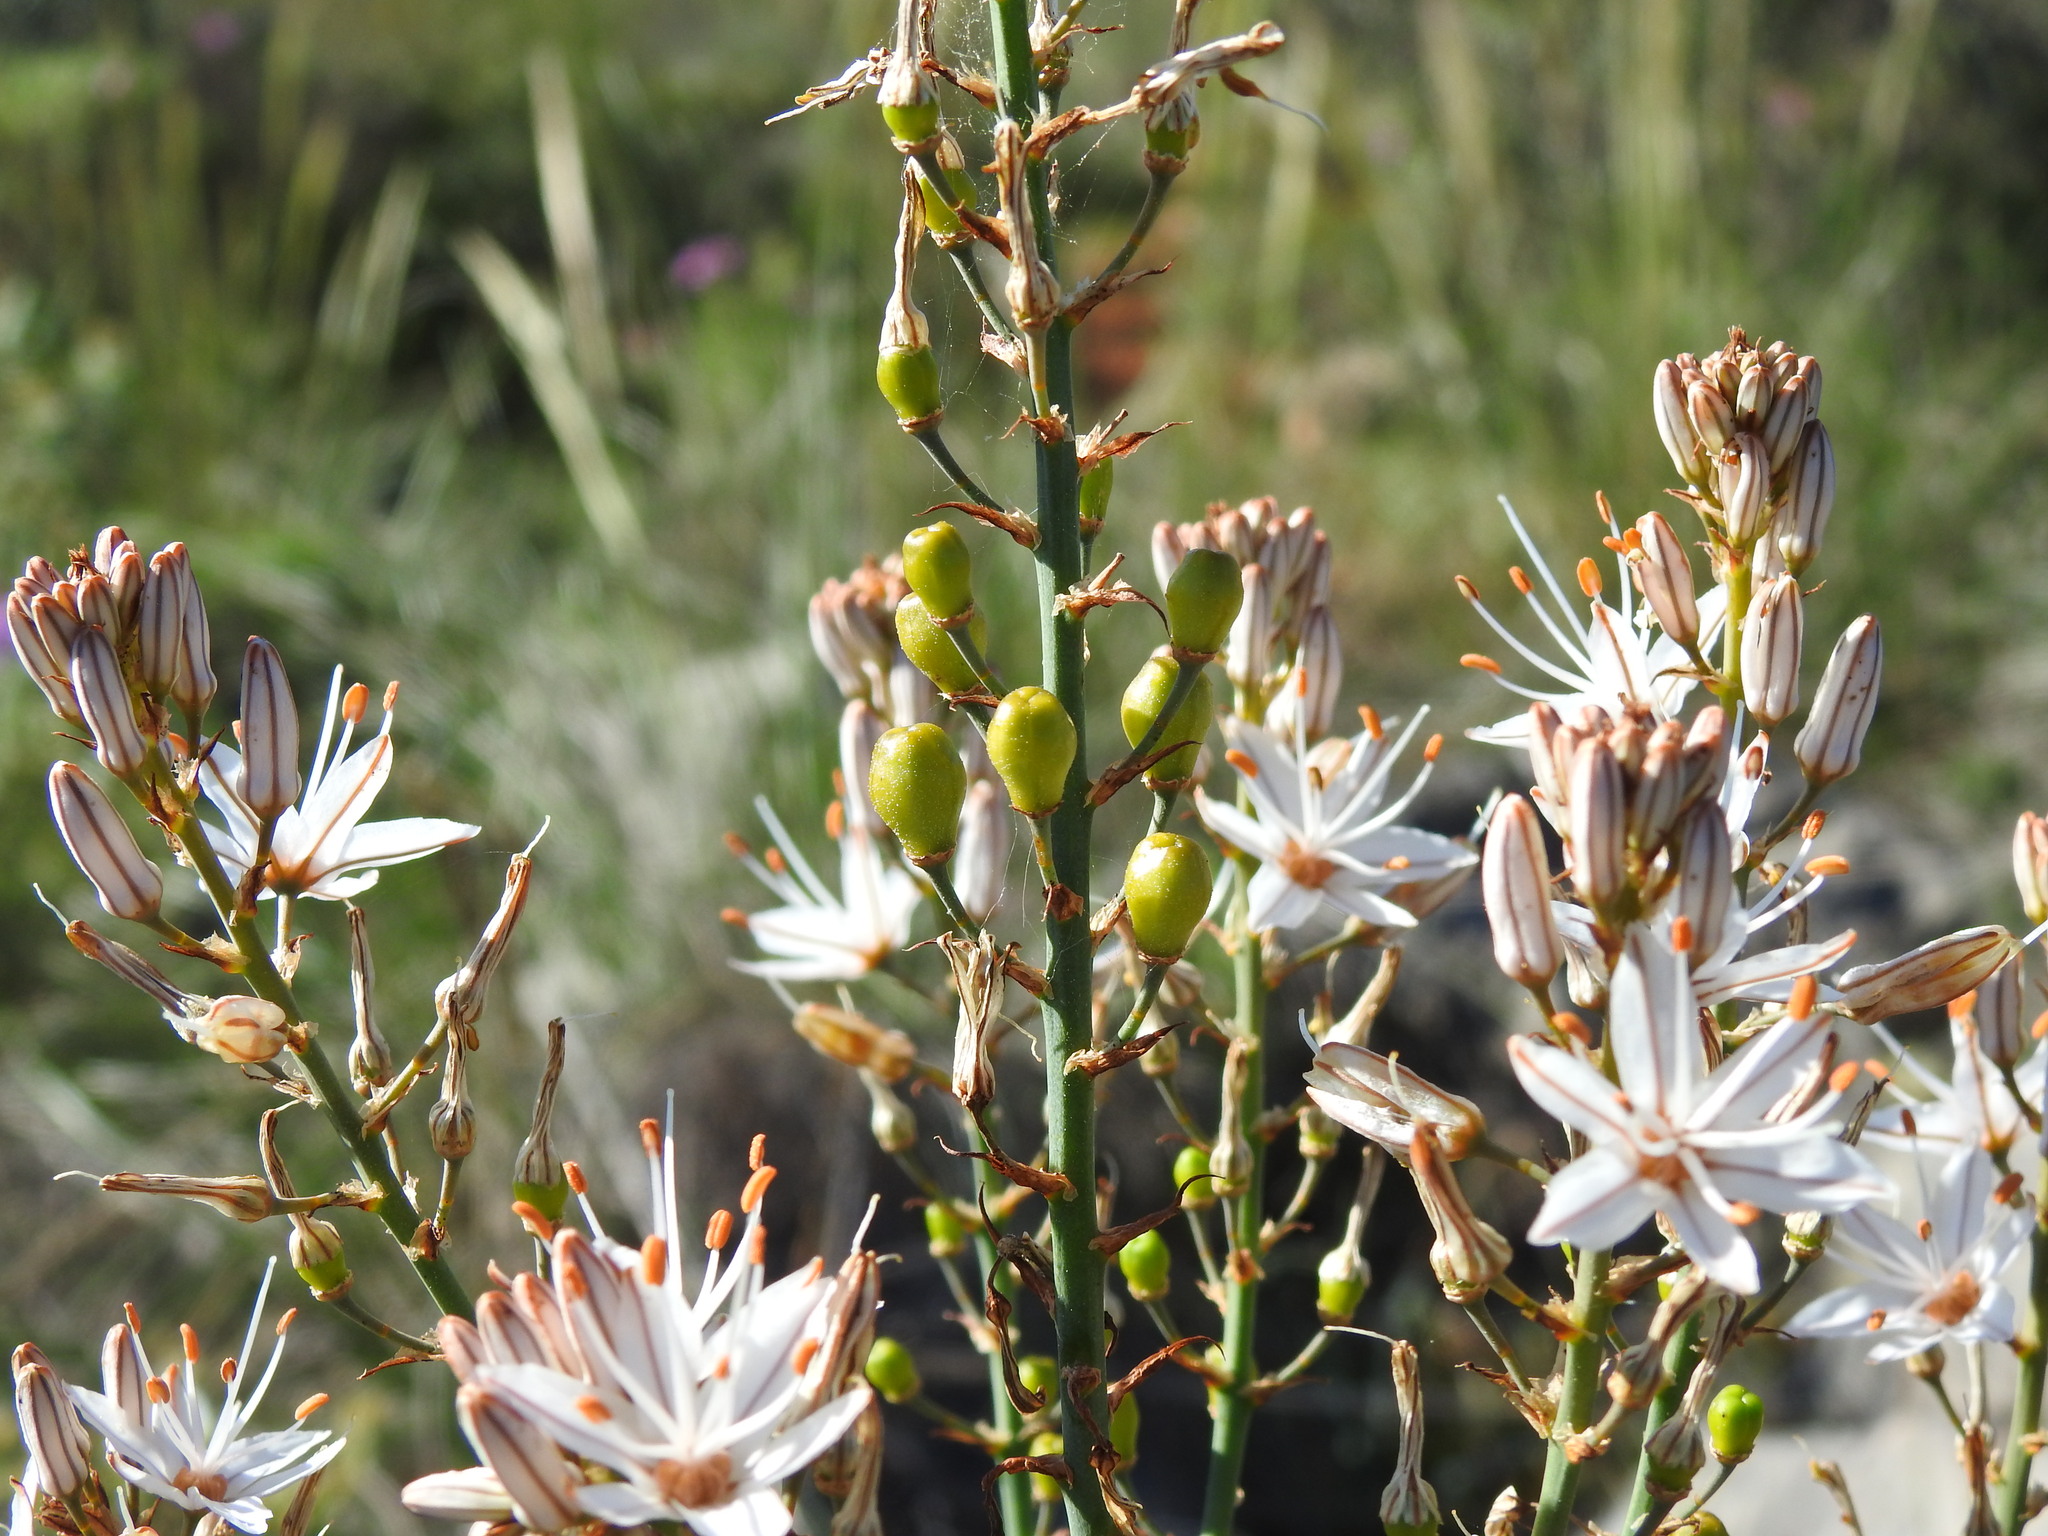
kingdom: Plantae
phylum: Tracheophyta
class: Liliopsida
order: Asparagales
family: Asphodelaceae
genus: Asphodelus
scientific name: Asphodelus serotinus
